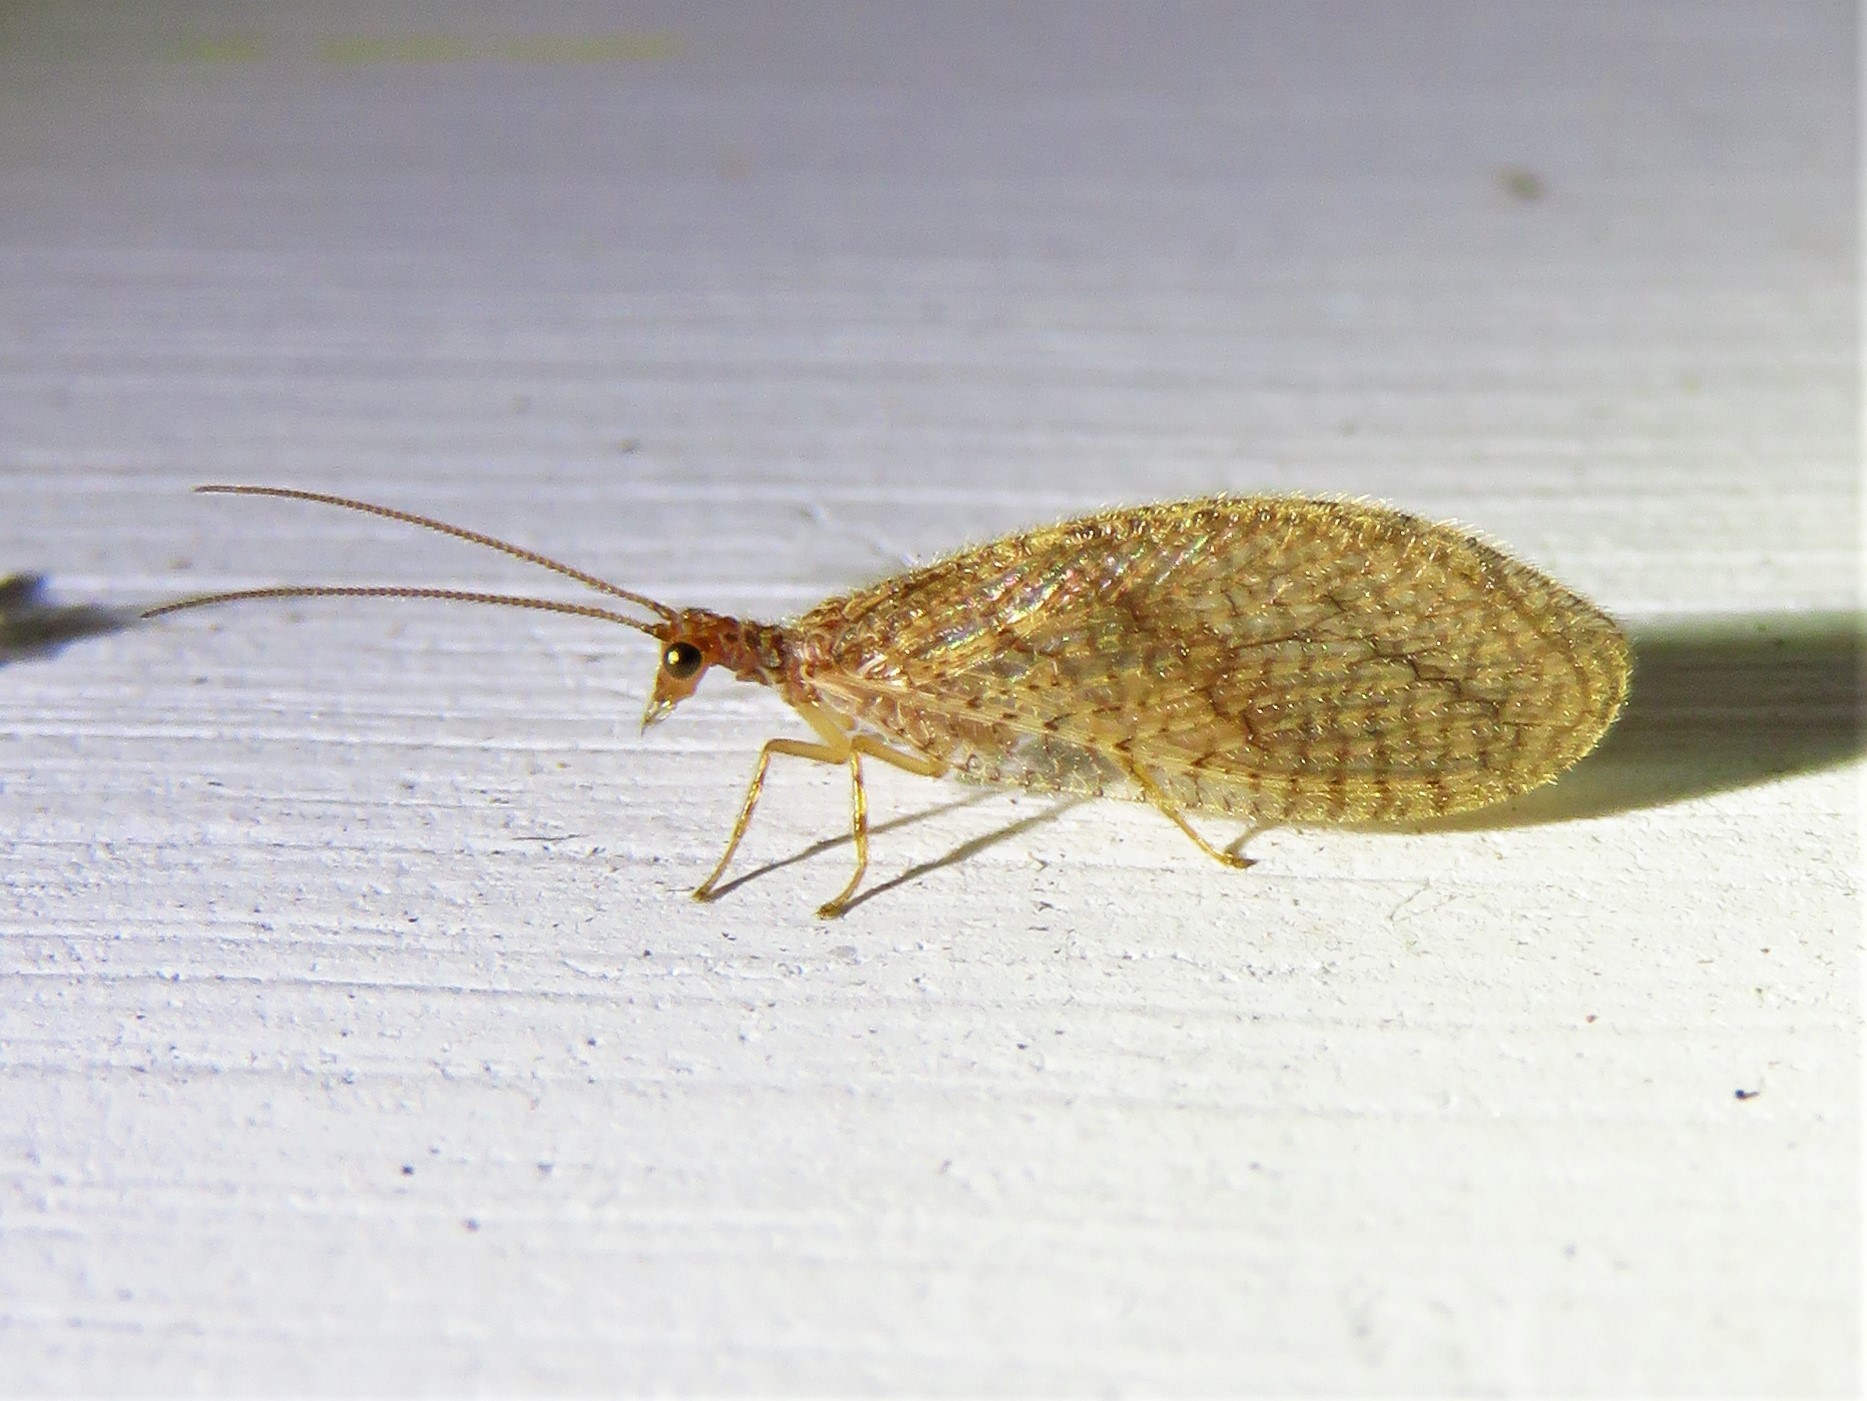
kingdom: Animalia
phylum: Arthropoda
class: Insecta
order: Neuroptera
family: Hemerobiidae
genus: Micromus
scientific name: Micromus posticus
